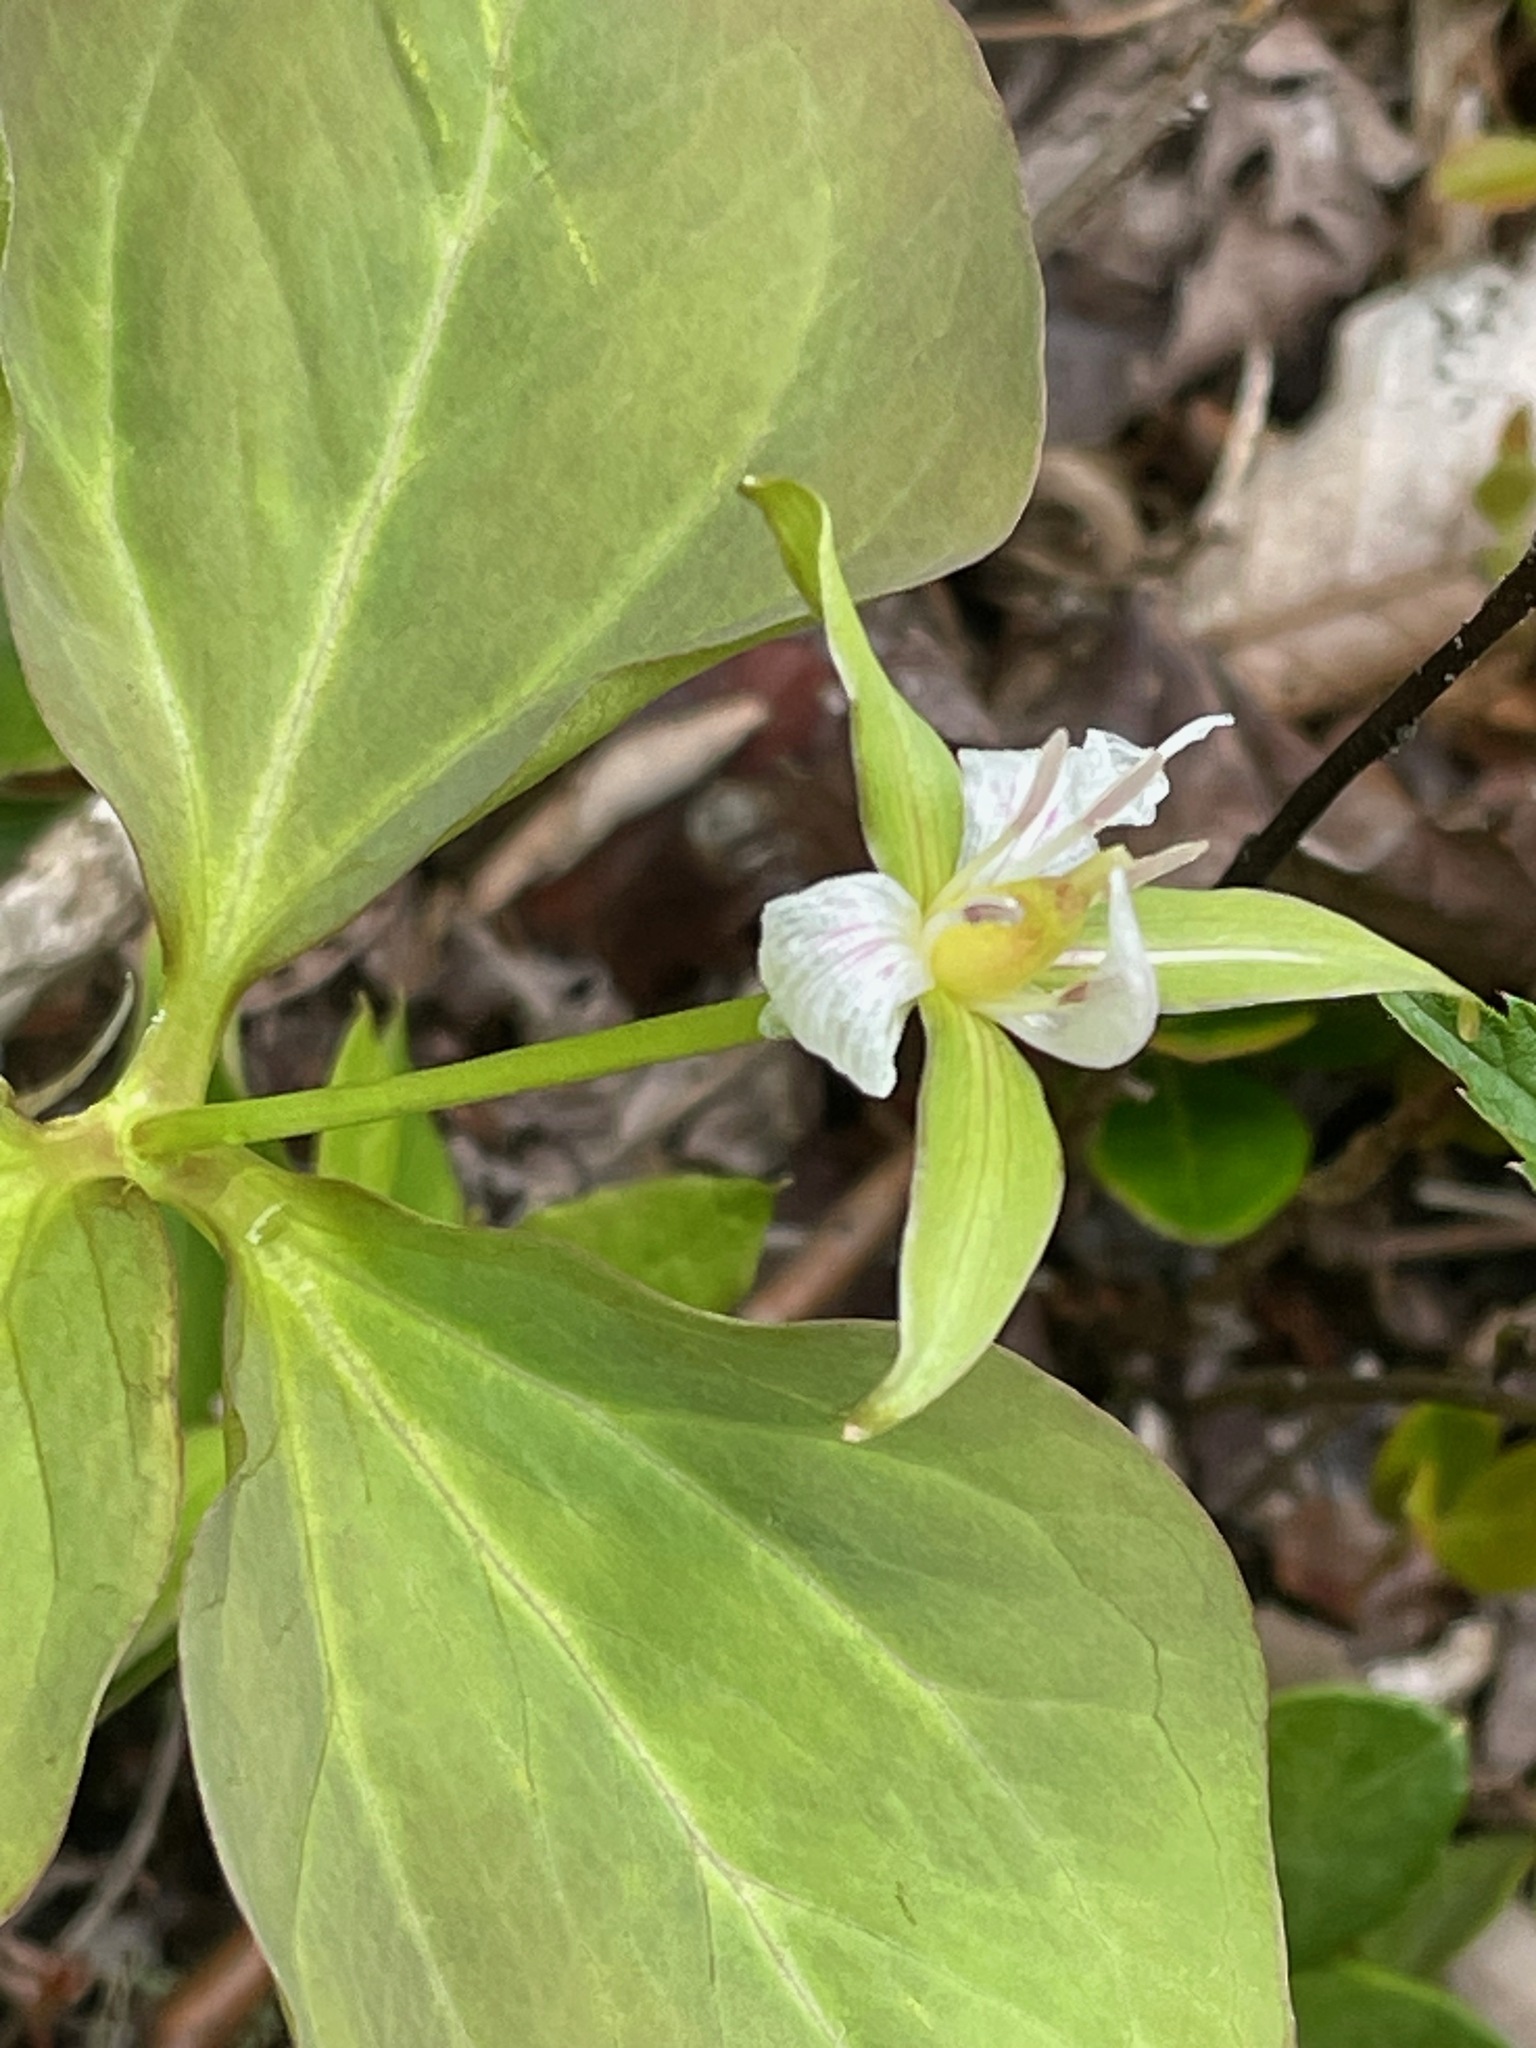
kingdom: Plantae
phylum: Tracheophyta
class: Liliopsida
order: Liliales
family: Melanthiaceae
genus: Trillium
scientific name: Trillium undulatum
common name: Paint trillium
